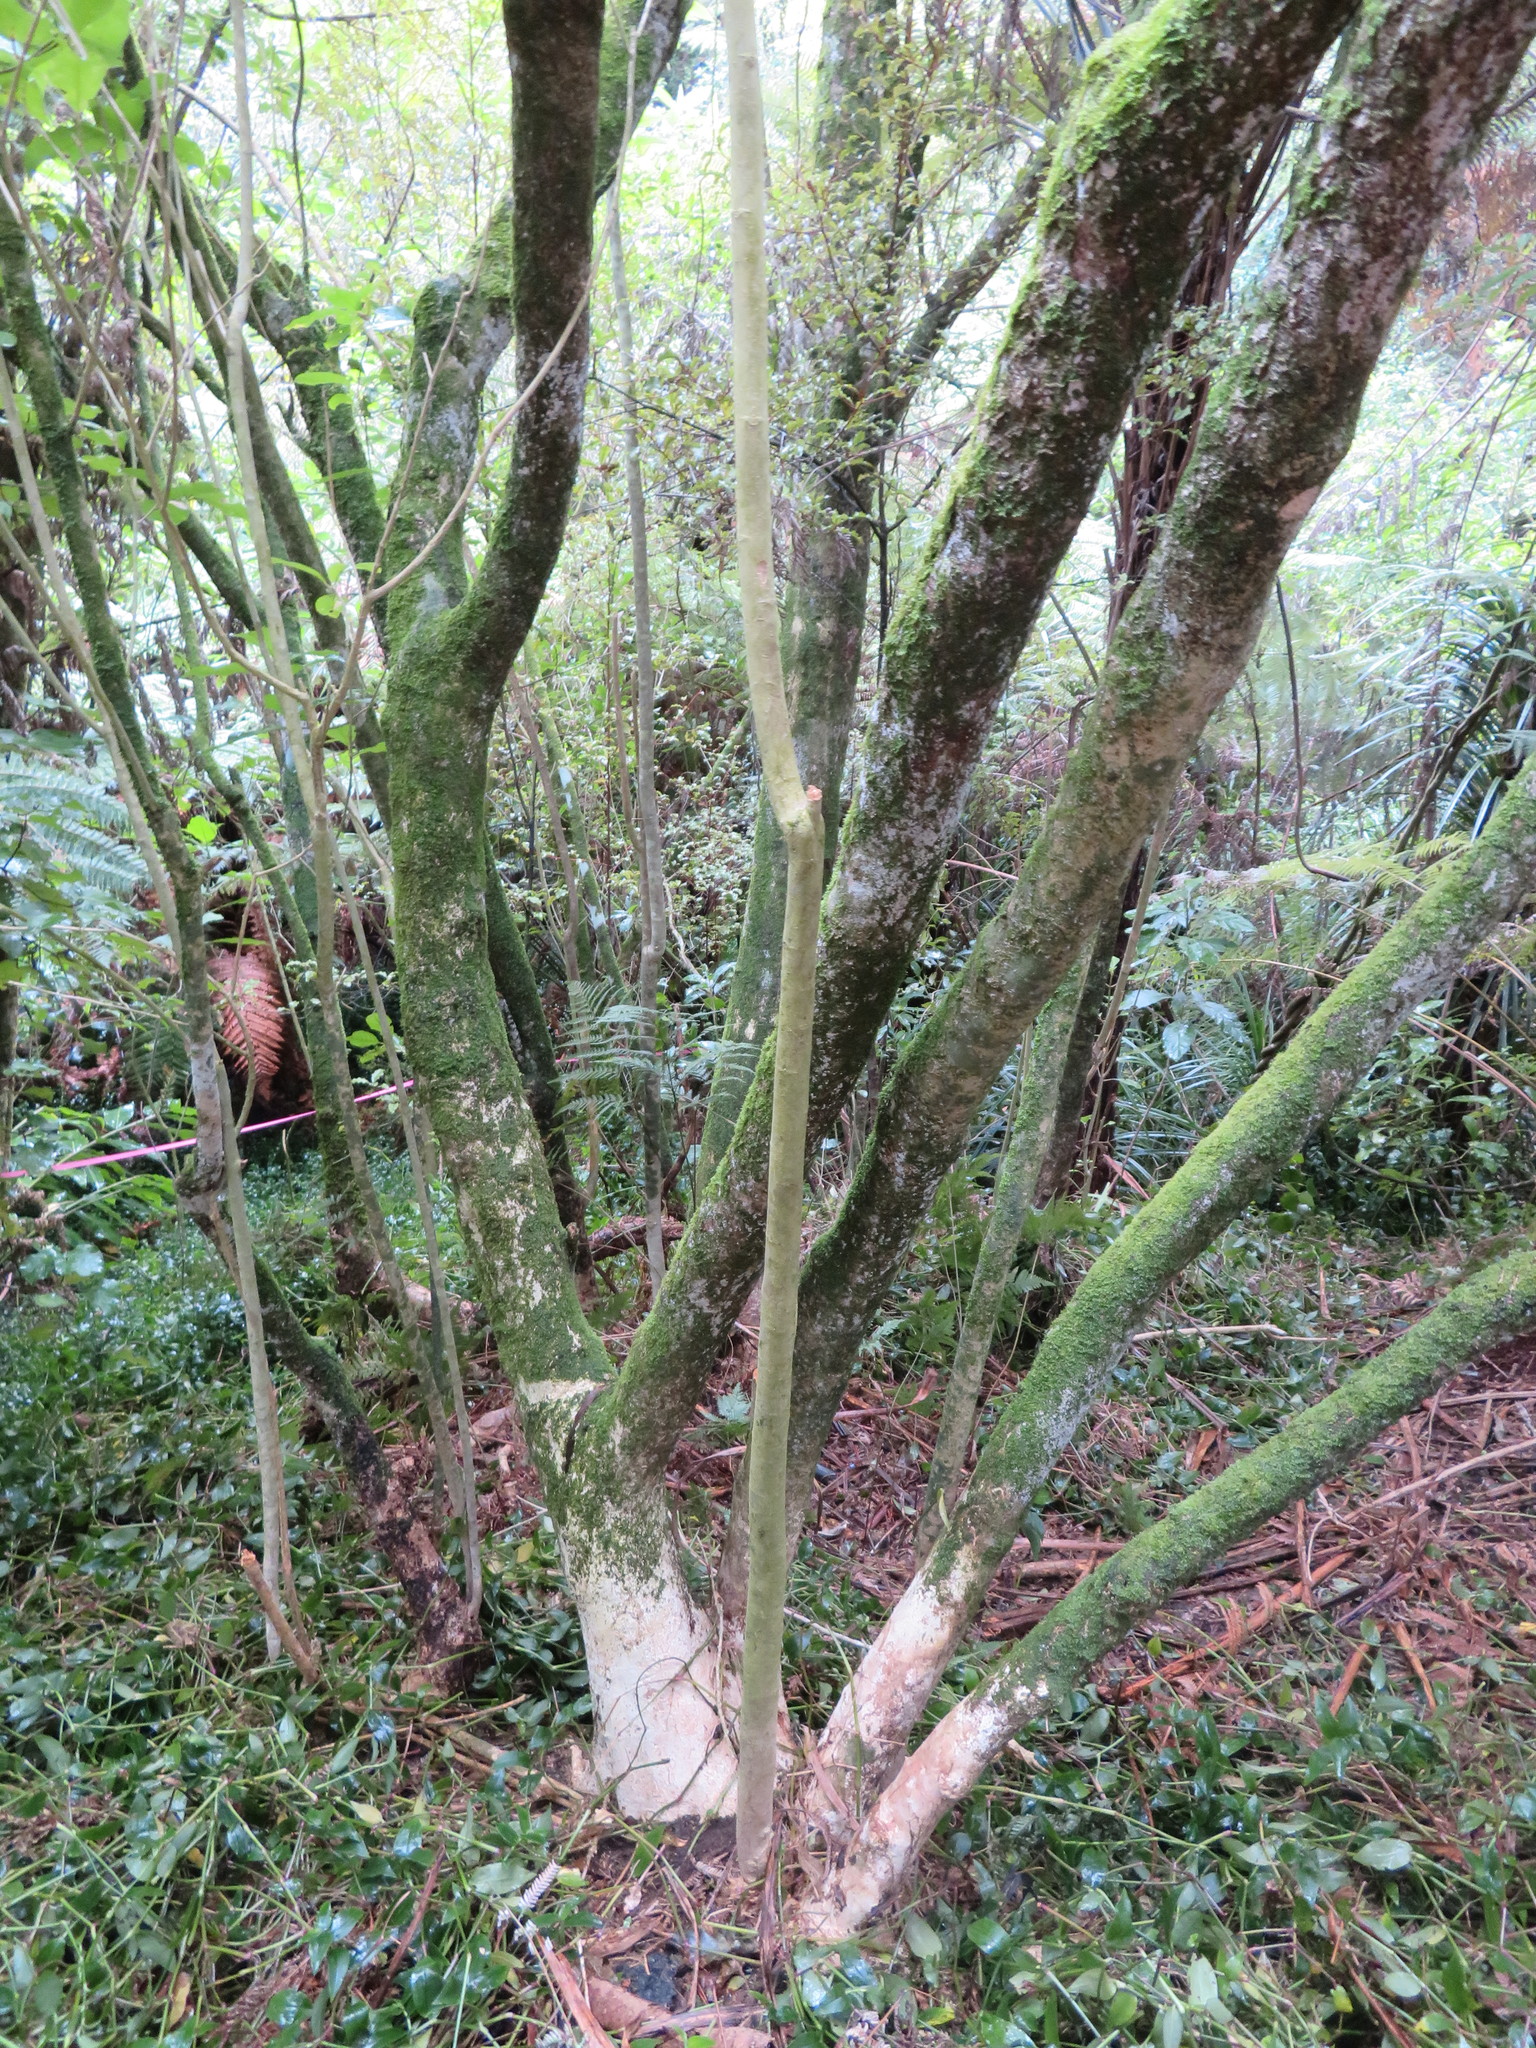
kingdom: Plantae
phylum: Tracheophyta
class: Liliopsida
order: Commelinales
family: Commelinaceae
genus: Tradescantia
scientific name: Tradescantia fluminensis
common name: Wandering-jew
